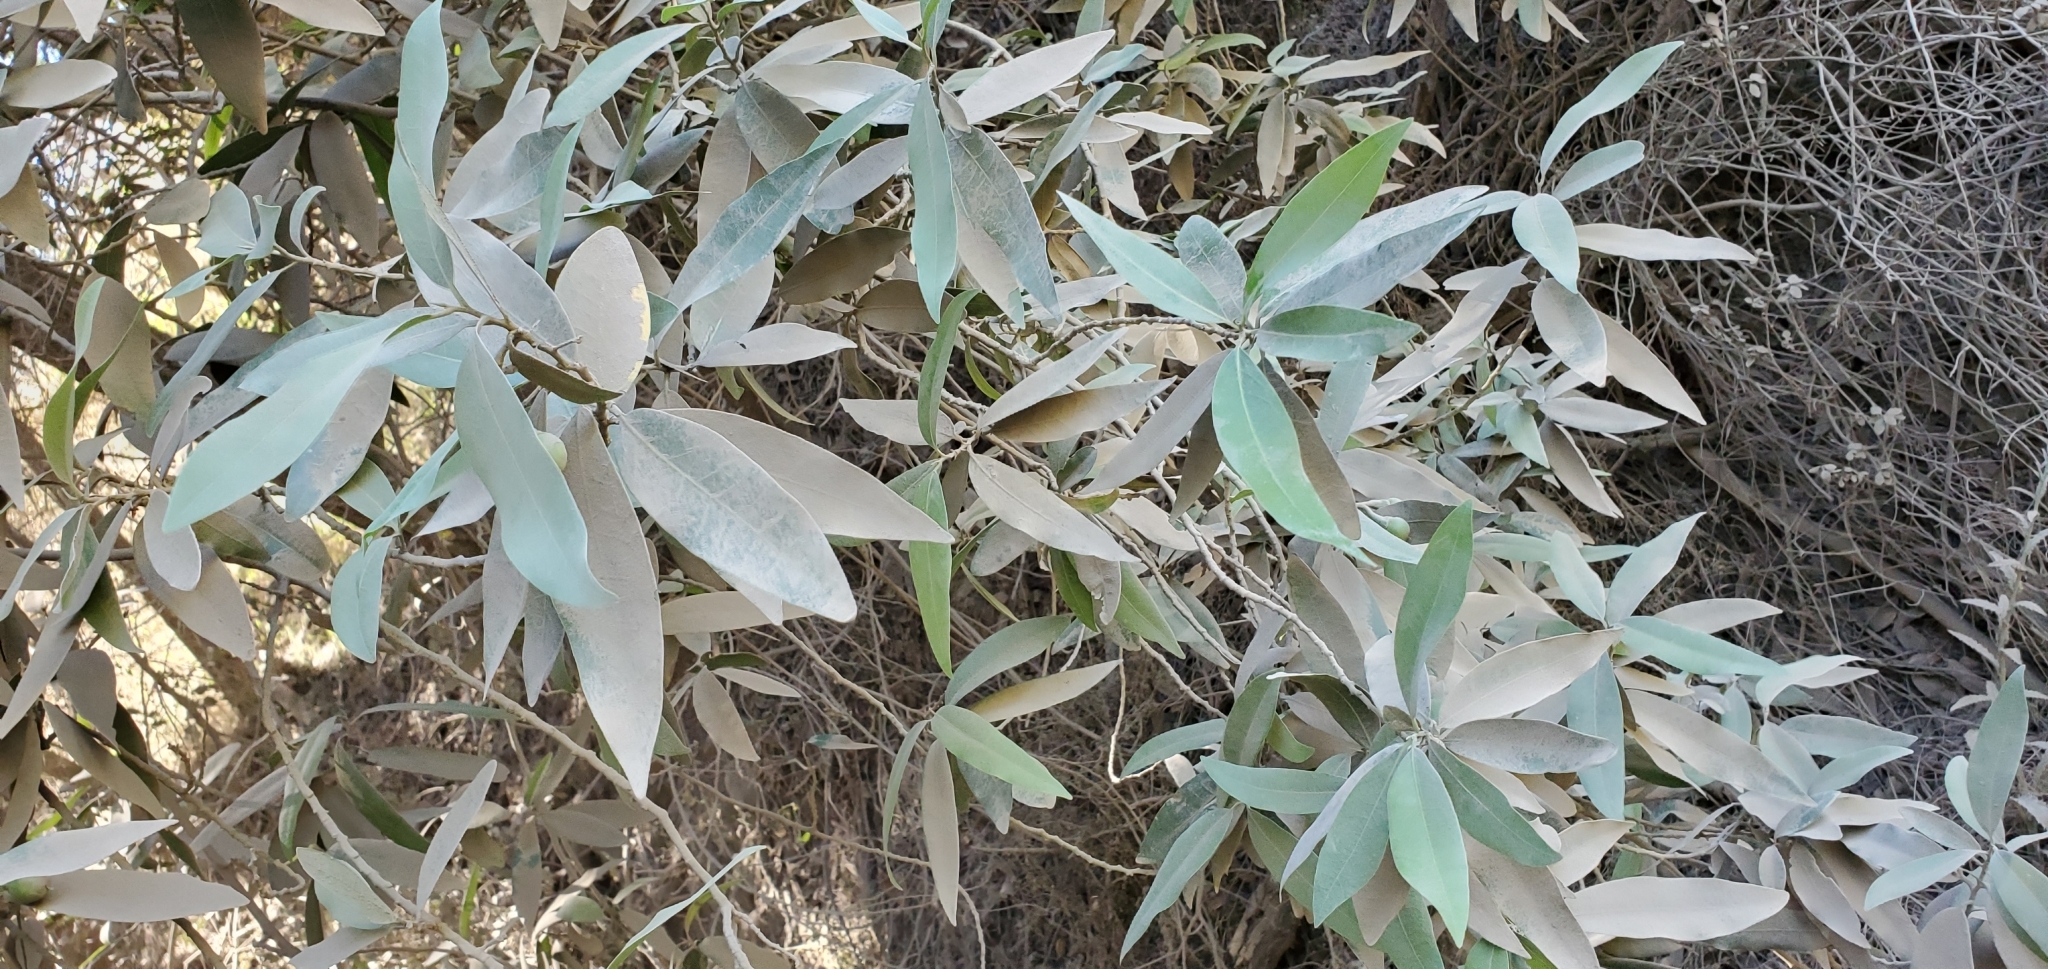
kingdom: Plantae
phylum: Tracheophyta
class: Magnoliopsida
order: Laurales
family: Lauraceae
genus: Umbellularia
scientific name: Umbellularia californica
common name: California bay
